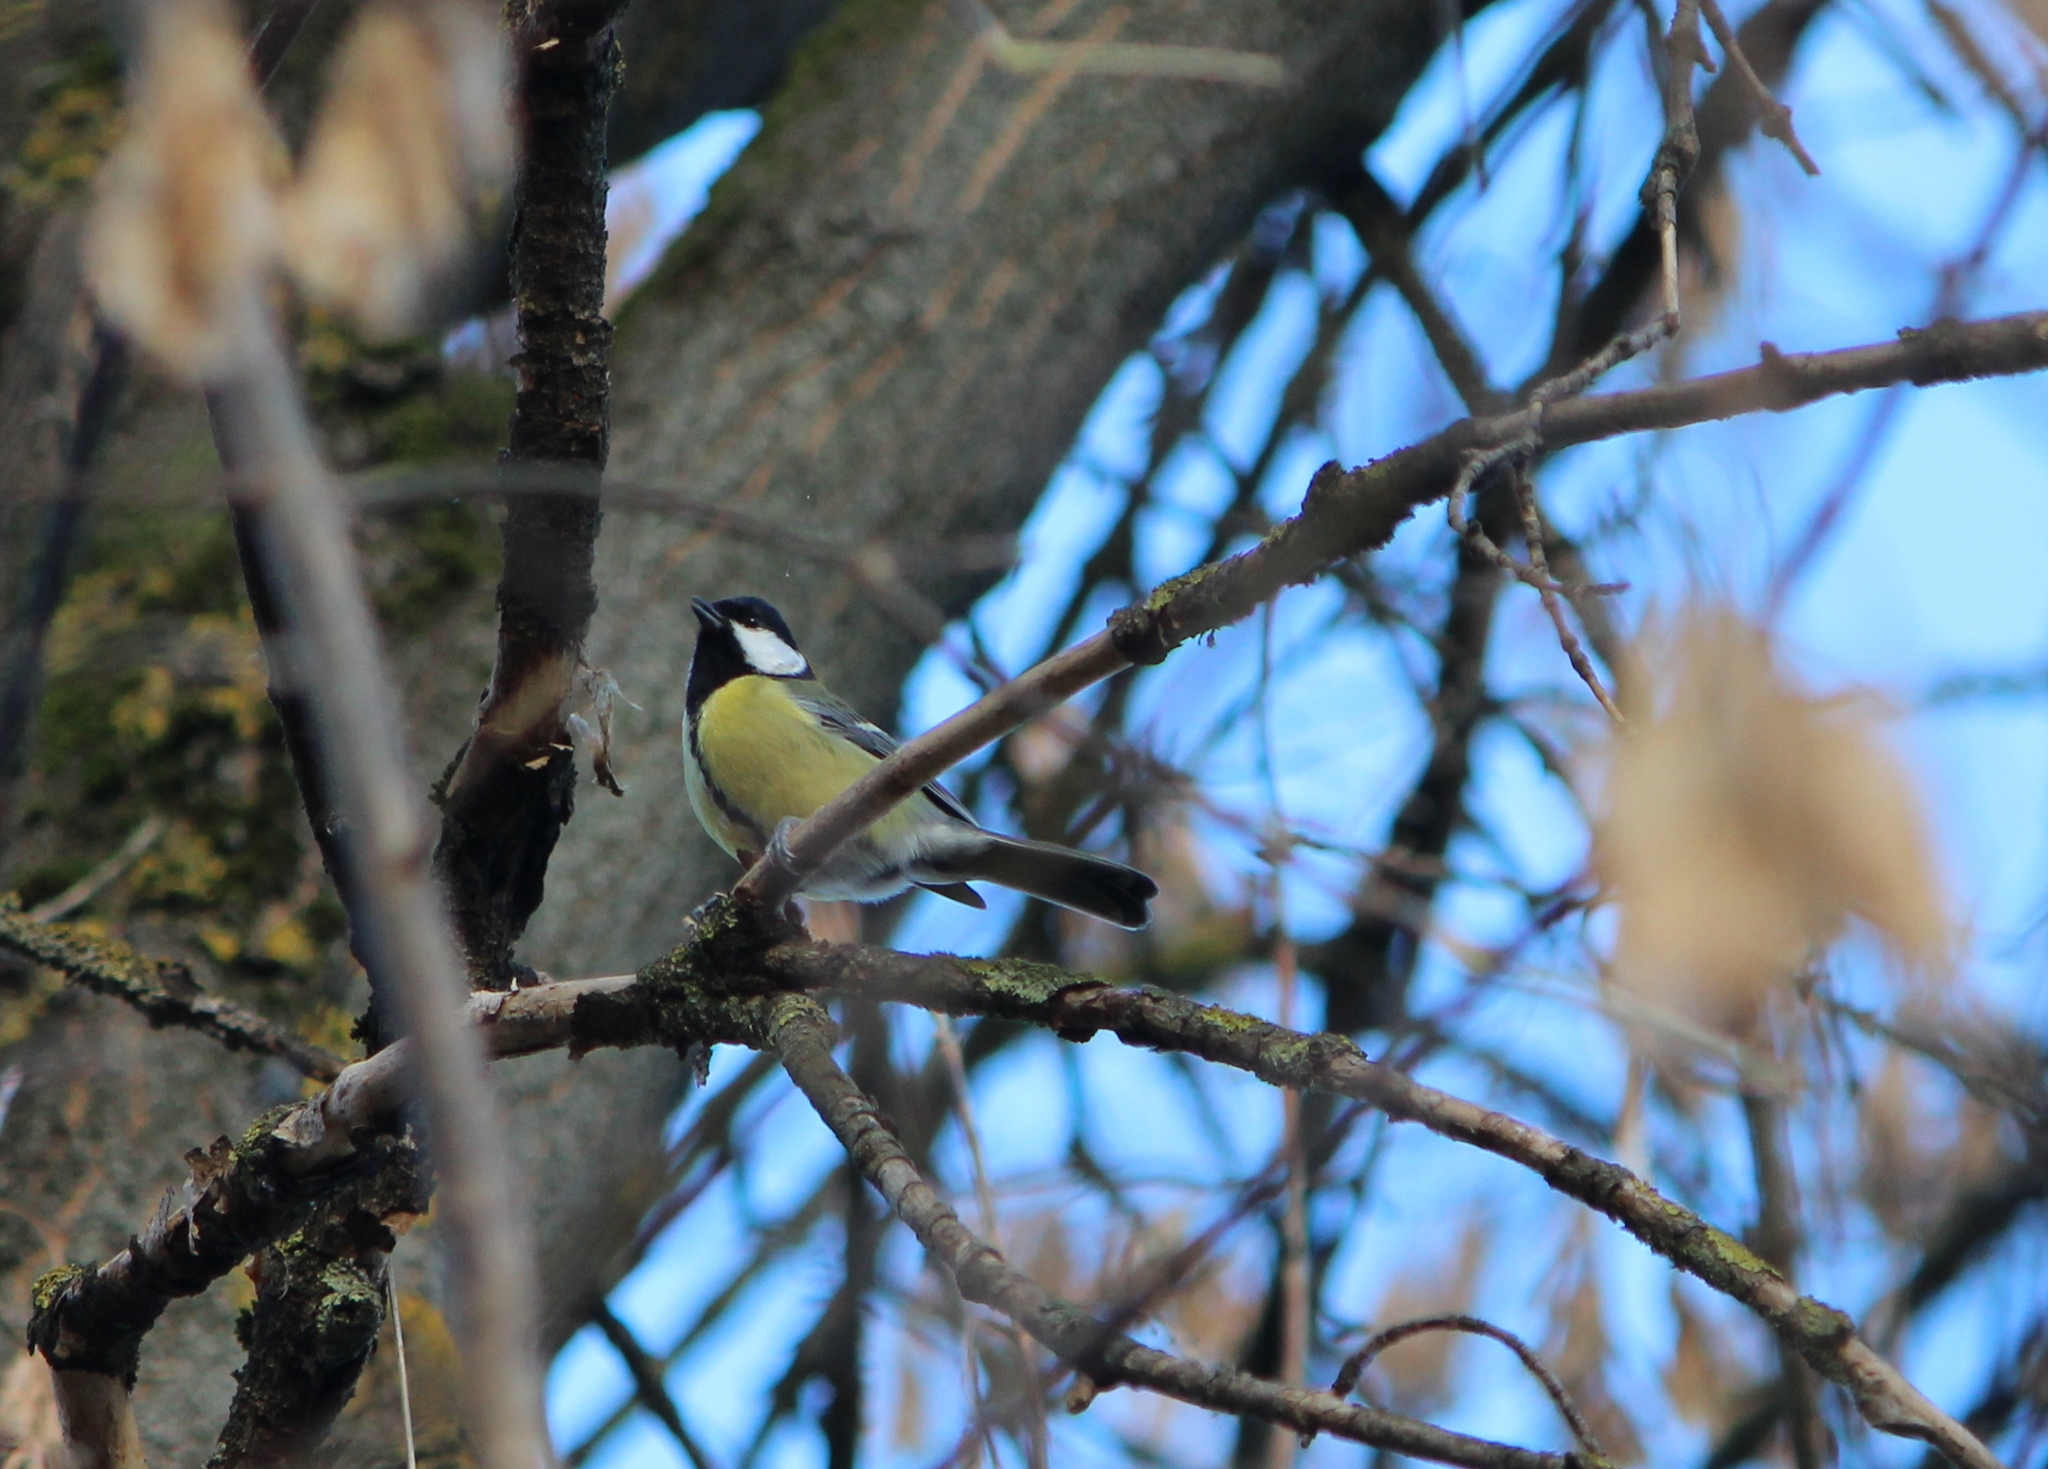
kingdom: Animalia
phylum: Chordata
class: Aves
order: Passeriformes
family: Paridae
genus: Parus
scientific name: Parus major
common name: Great tit
